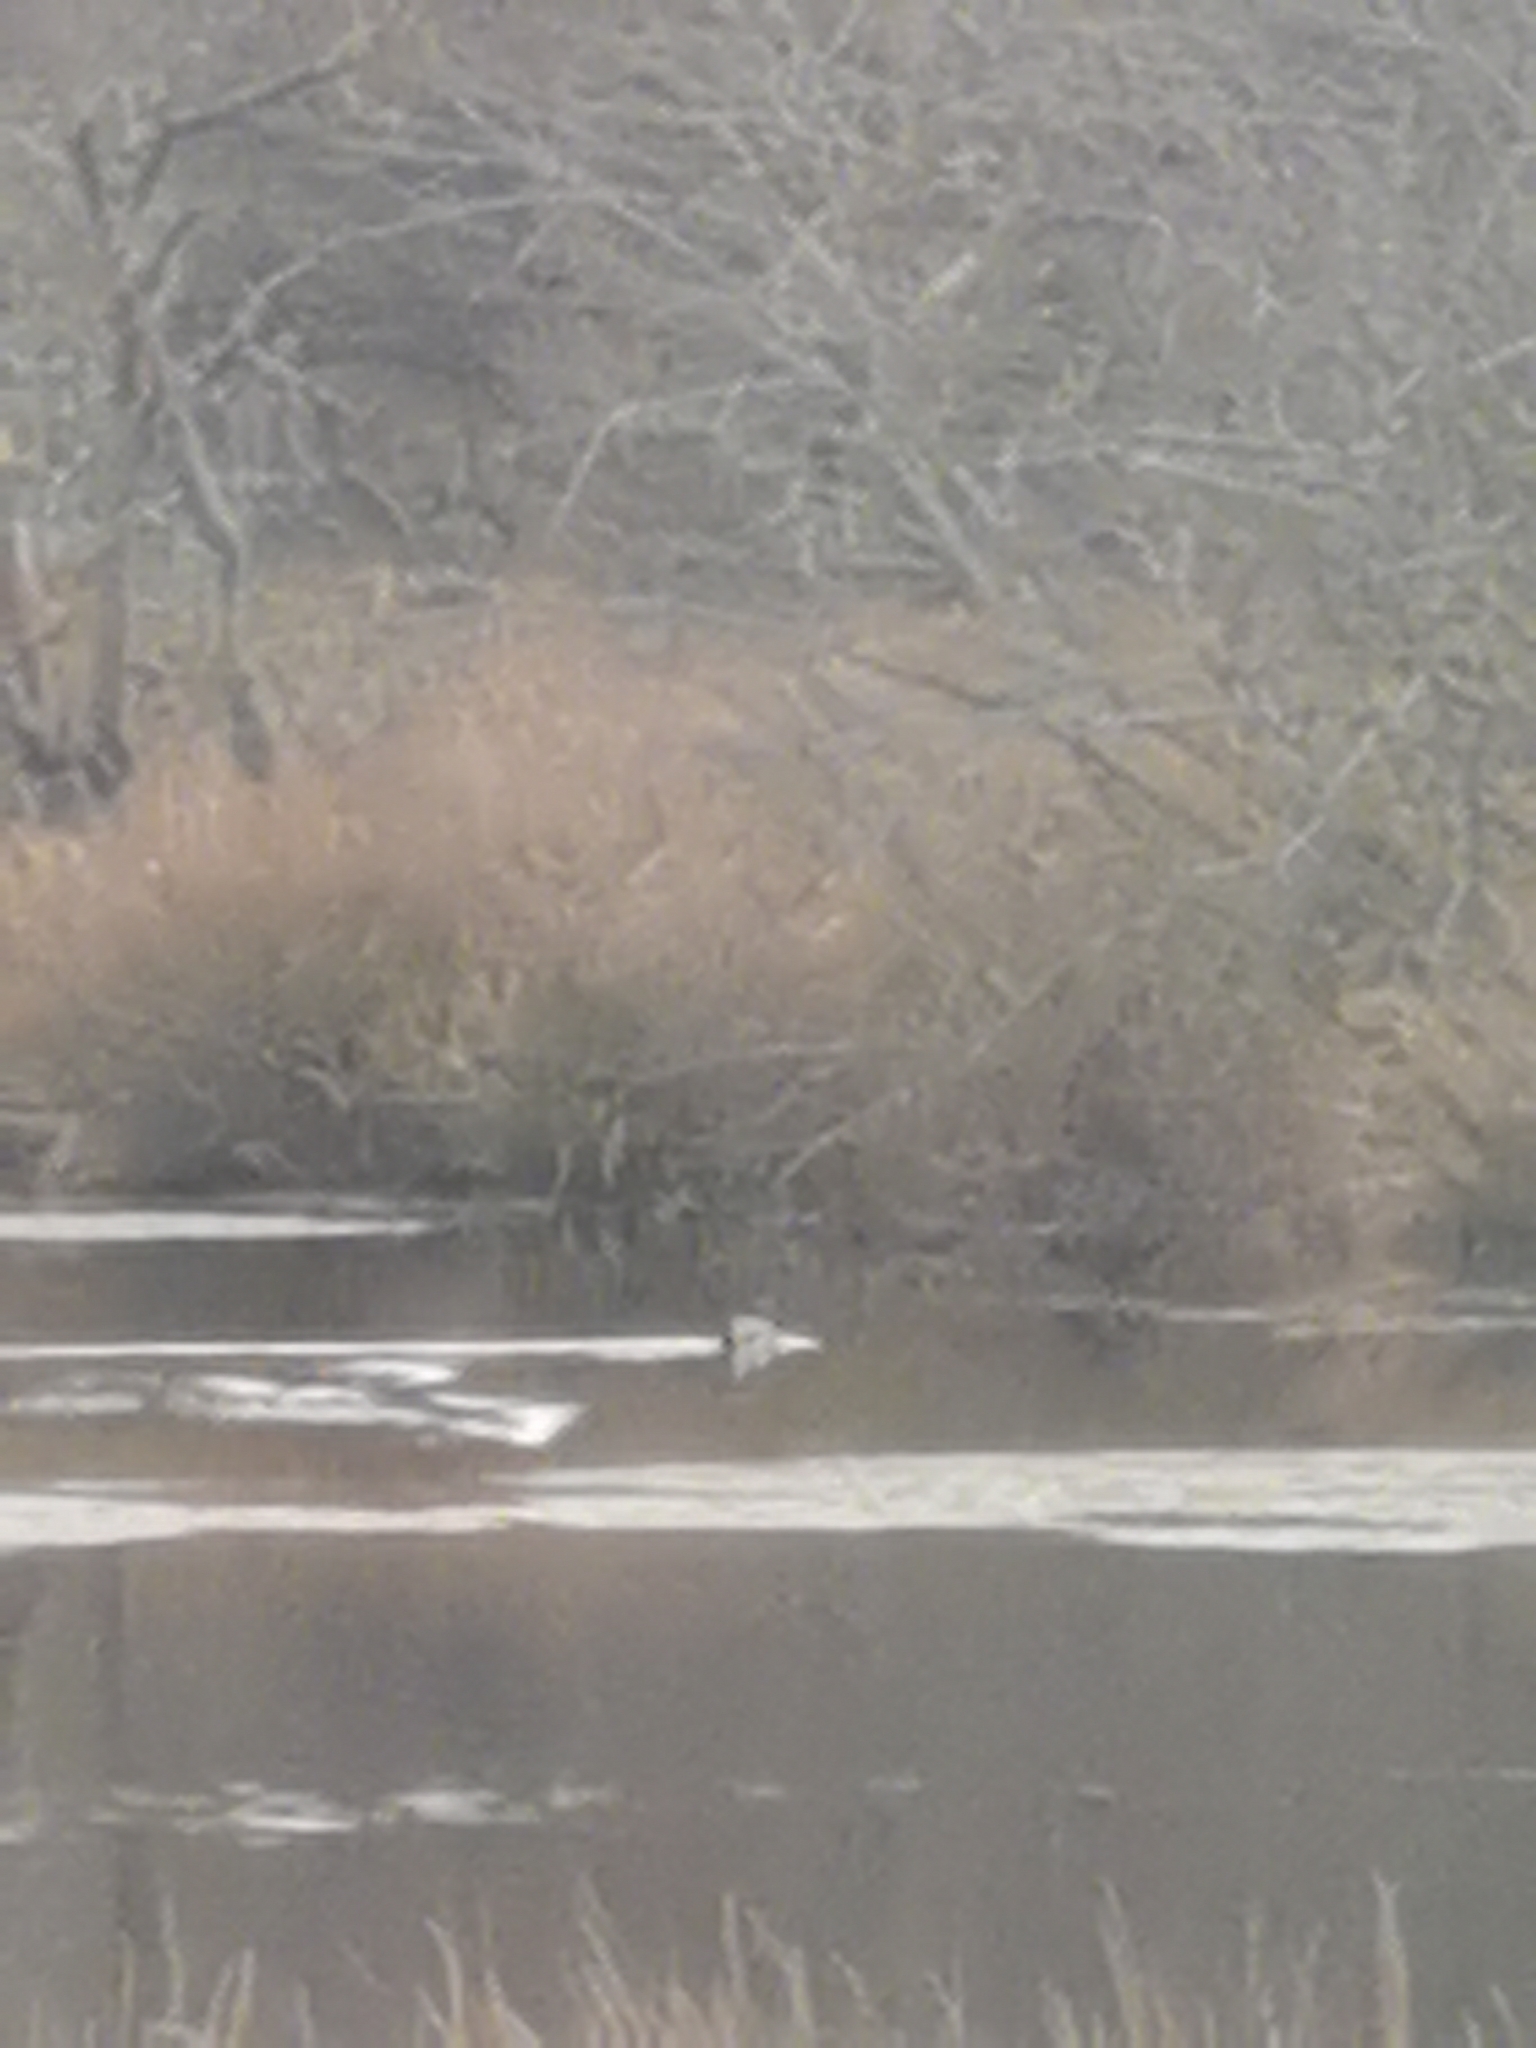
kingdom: Animalia
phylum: Chordata
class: Aves
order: Anseriformes
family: Anatidae
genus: Anas
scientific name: Anas crecca
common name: Eurasian teal
